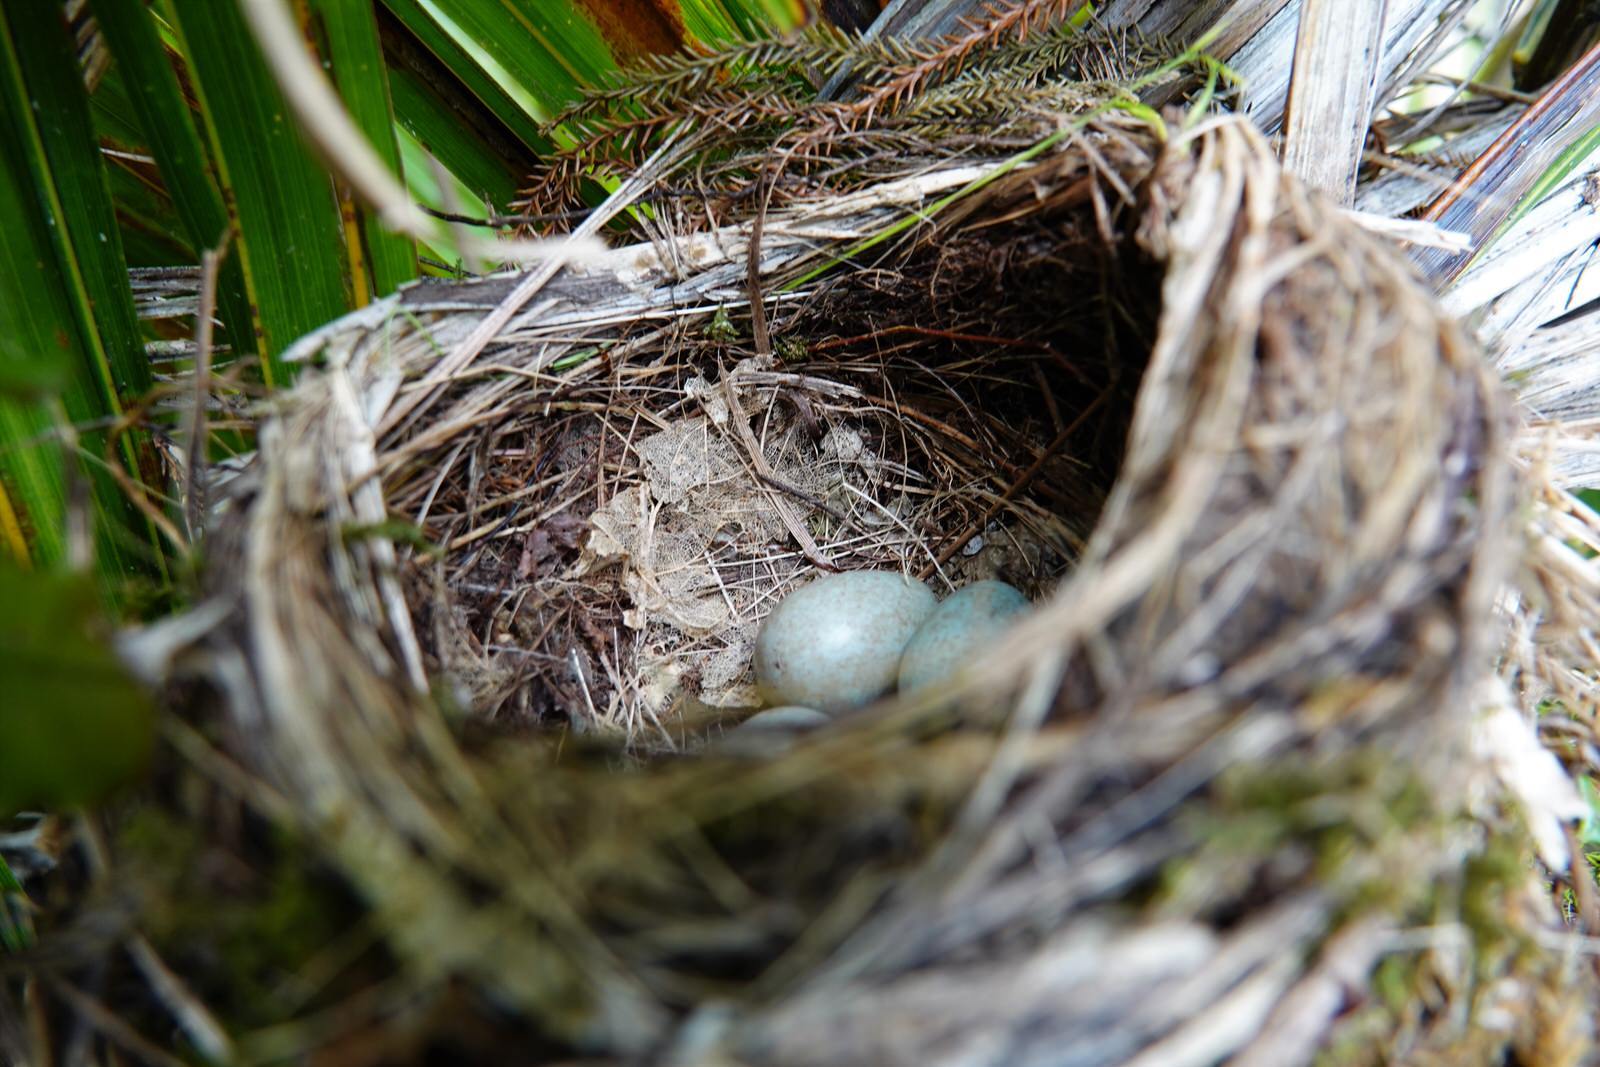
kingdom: Animalia
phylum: Chordata
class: Aves
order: Passeriformes
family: Turdidae
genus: Turdus
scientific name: Turdus merula
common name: Common blackbird
